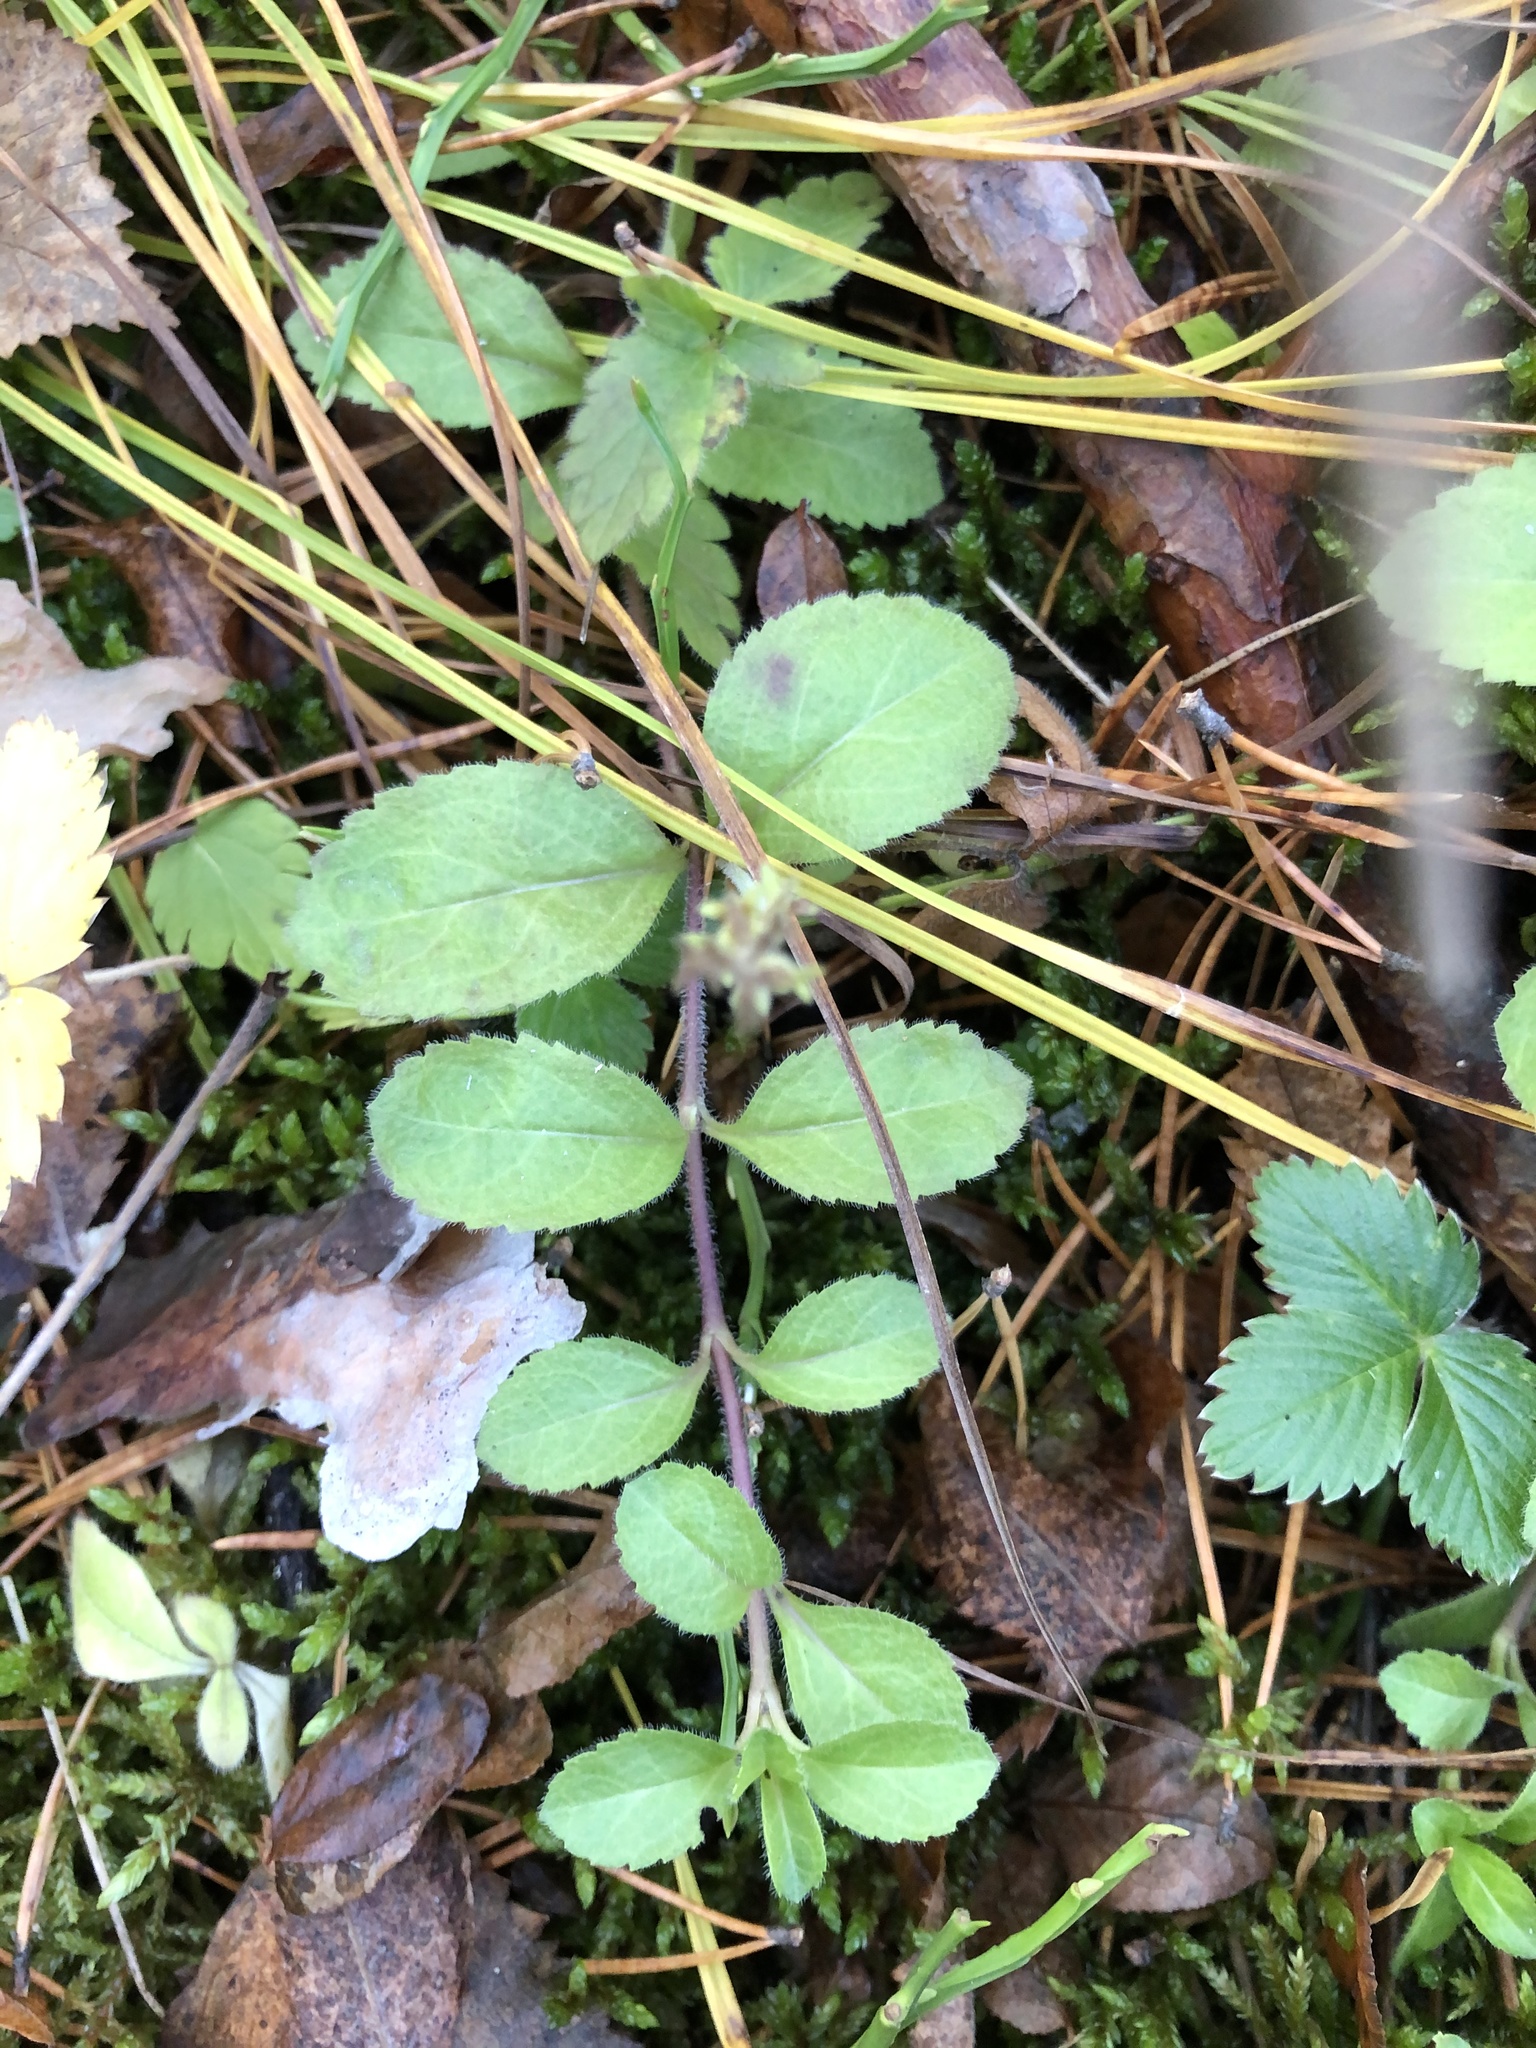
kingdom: Plantae
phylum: Tracheophyta
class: Magnoliopsida
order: Lamiales
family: Plantaginaceae
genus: Veronica
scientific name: Veronica officinalis
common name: Common speedwell
